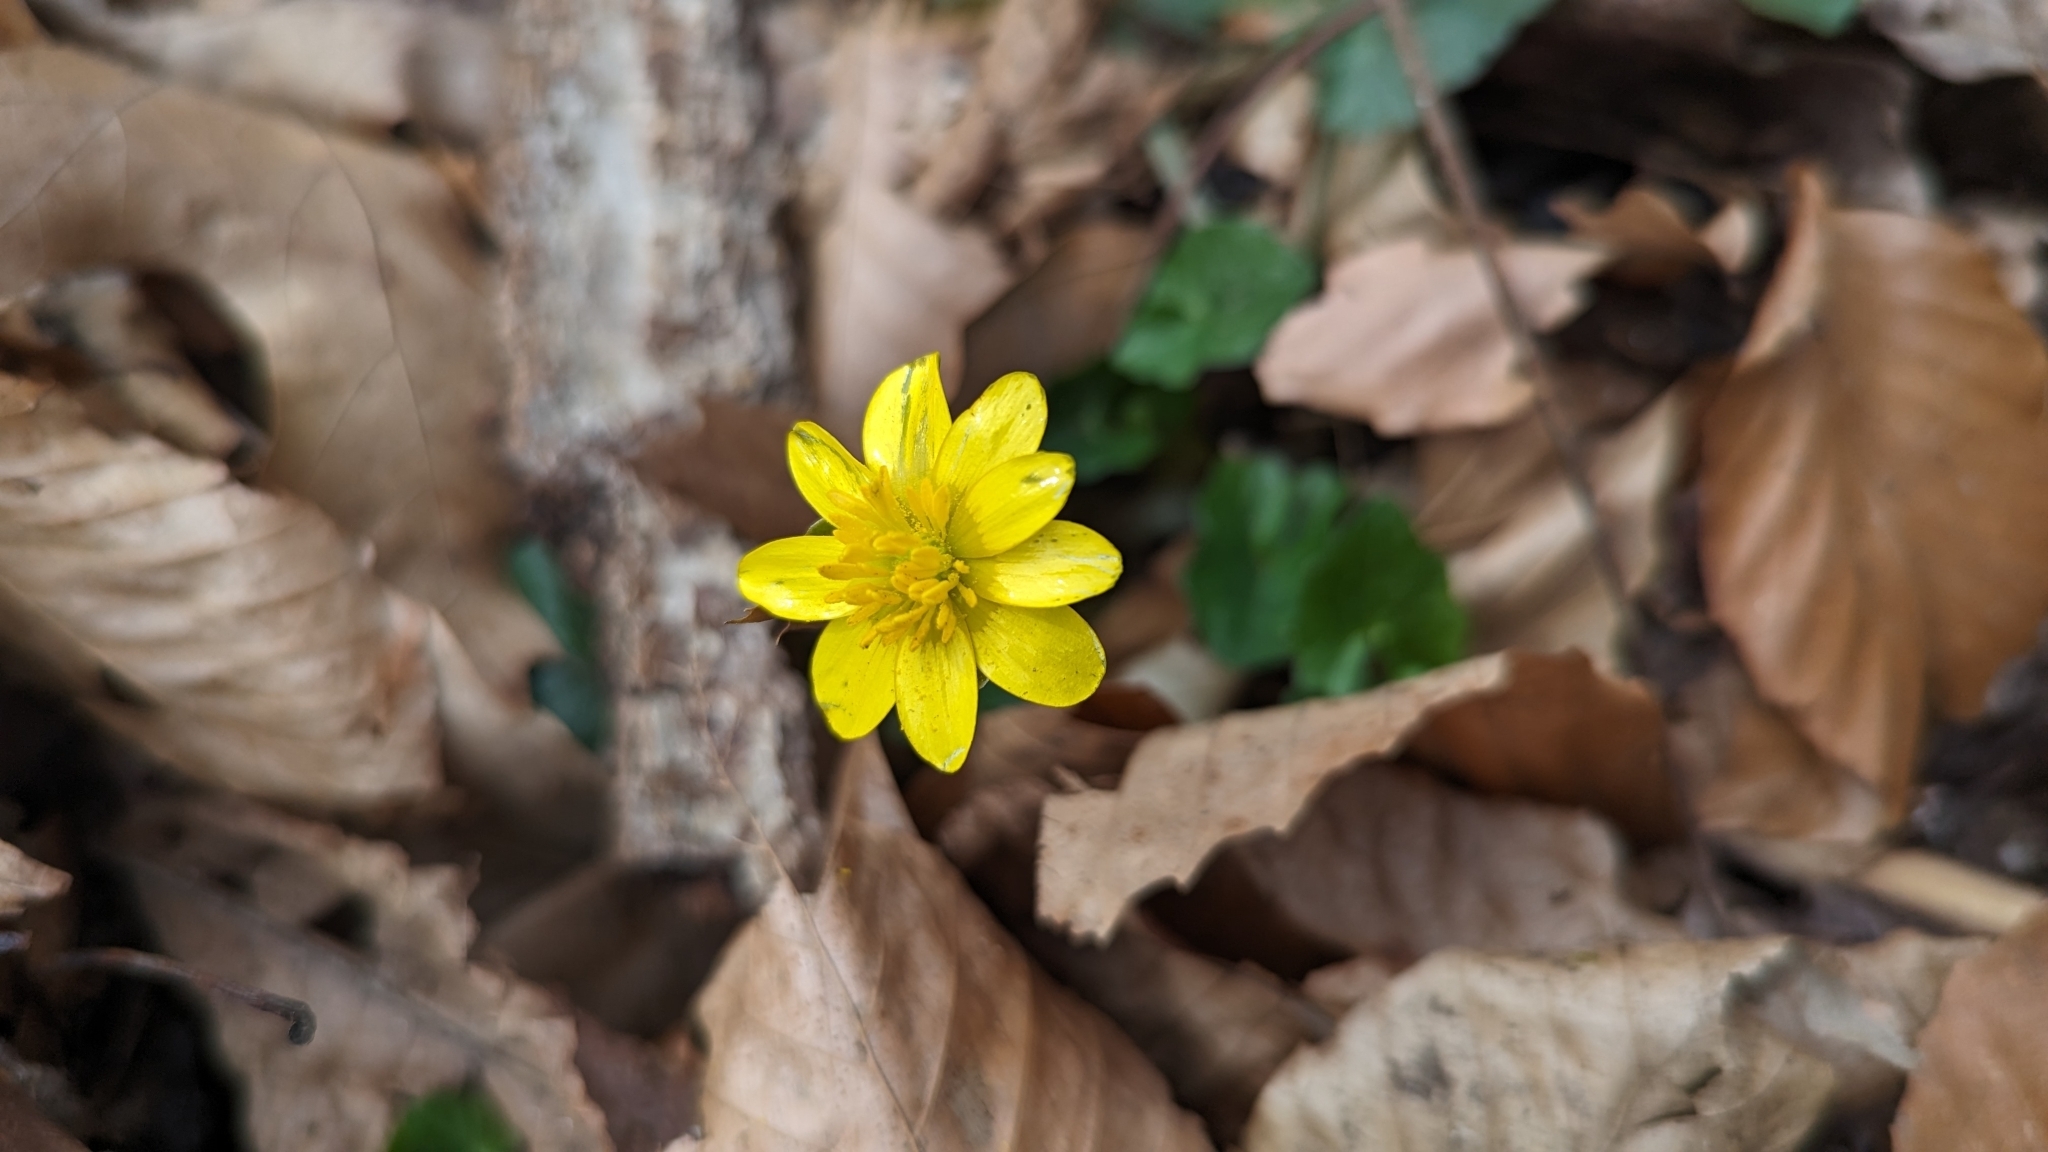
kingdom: Plantae
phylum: Tracheophyta
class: Magnoliopsida
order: Ranunculales
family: Ranunculaceae
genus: Ficaria
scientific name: Ficaria verna
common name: Lesser celandine
